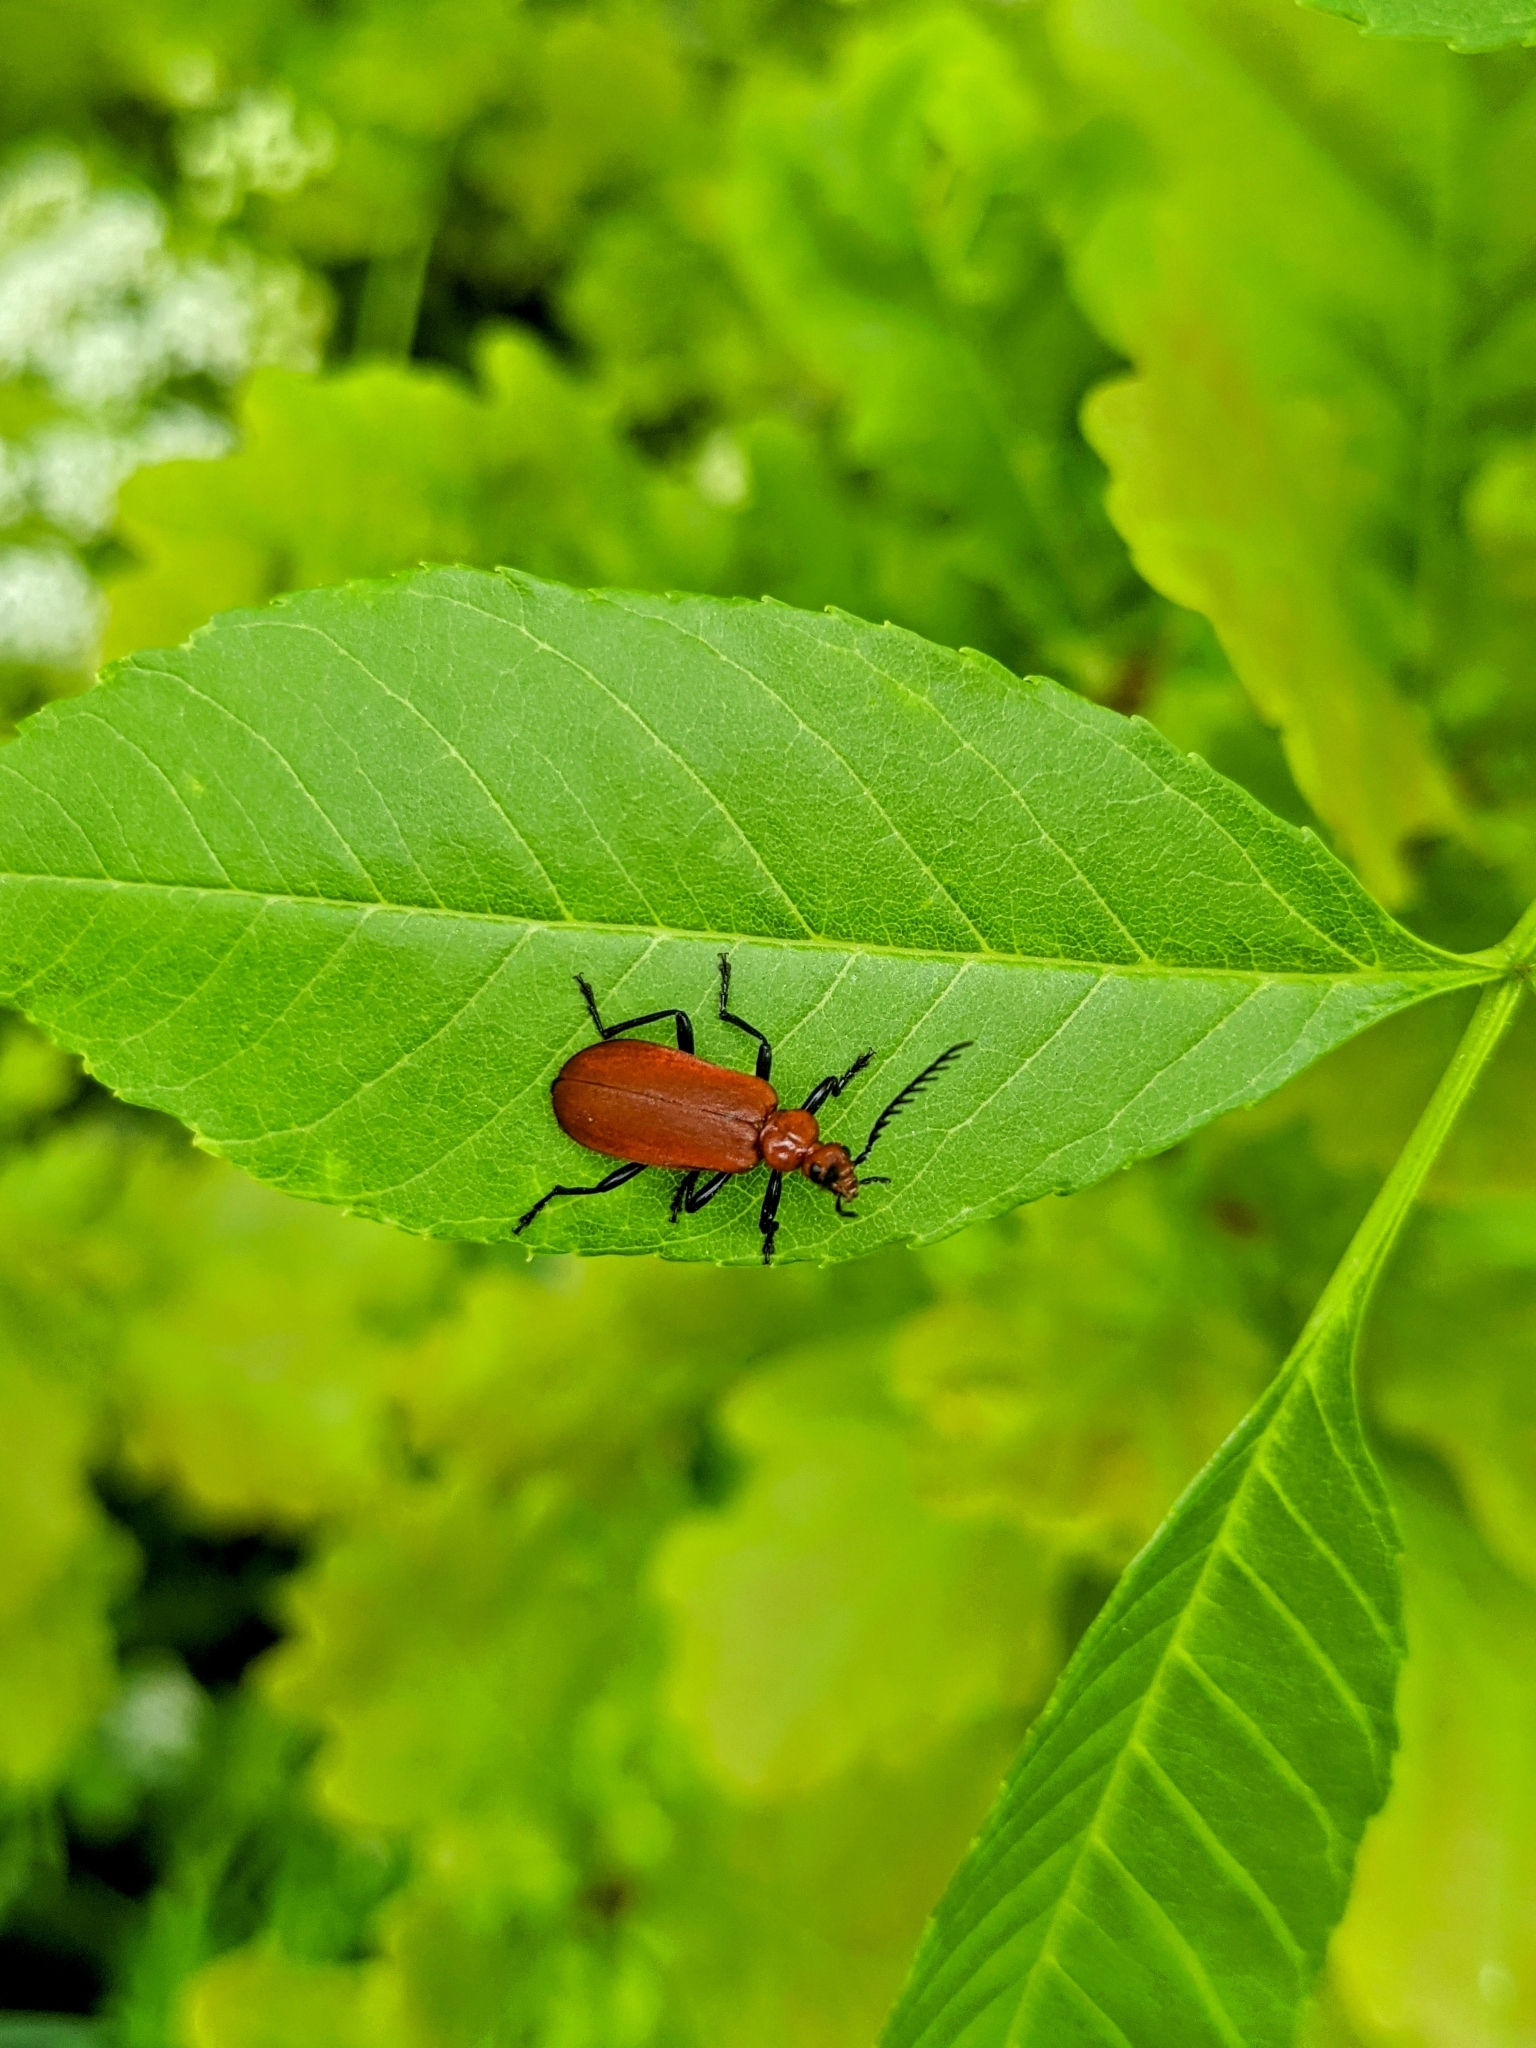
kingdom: Animalia
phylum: Arthropoda
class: Insecta
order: Coleoptera
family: Pyrochroidae
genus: Pyrochroa
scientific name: Pyrochroa serraticornis
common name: Red-headed cardinal beetle
